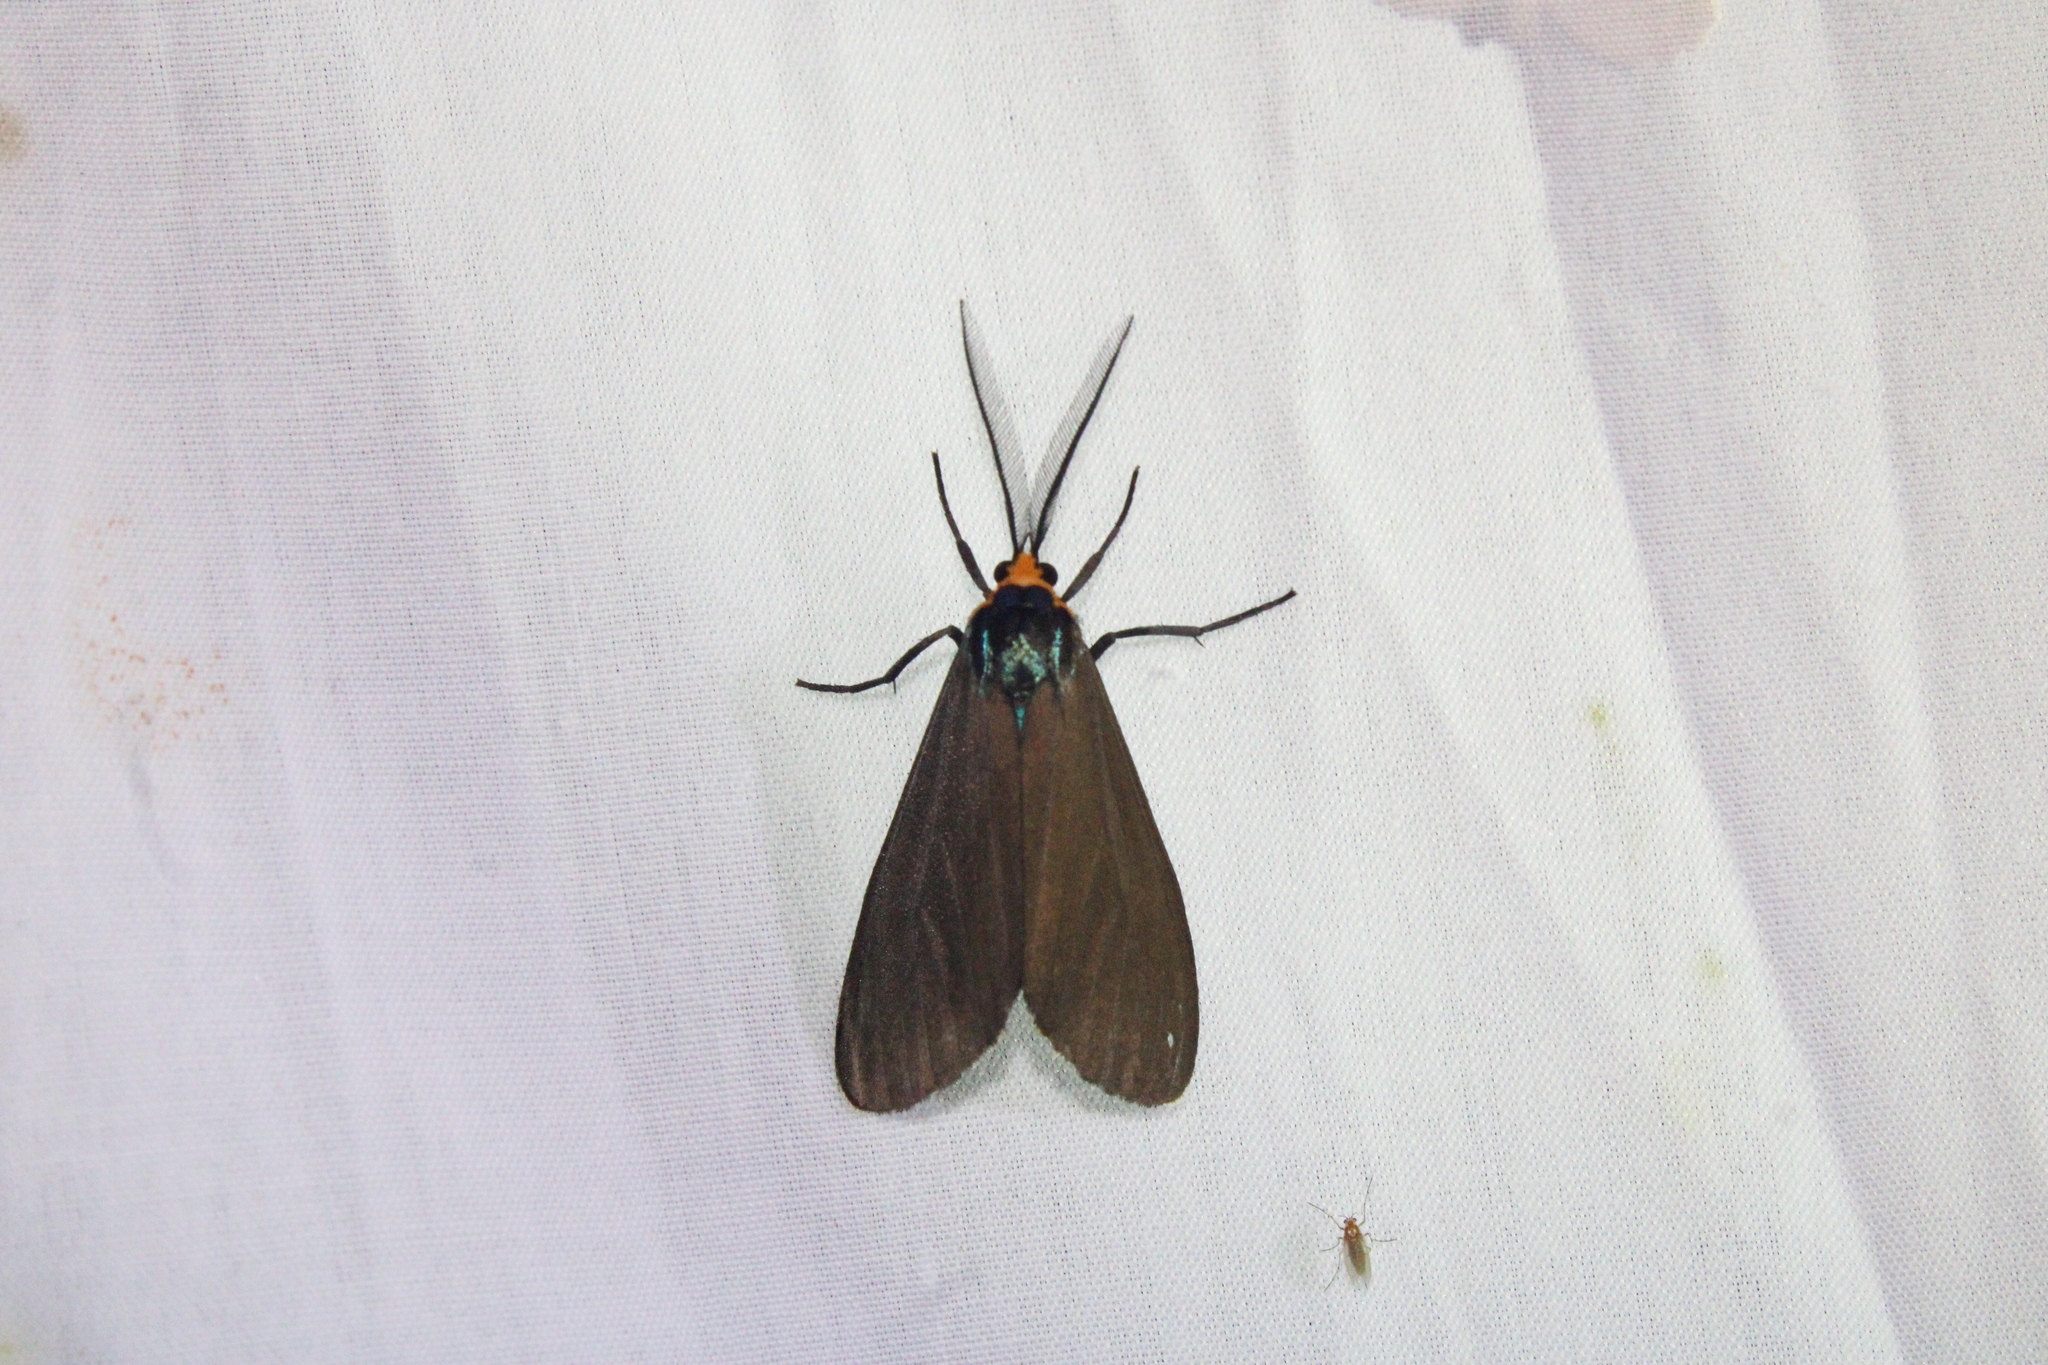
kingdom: Animalia
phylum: Arthropoda
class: Insecta
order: Lepidoptera
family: Erebidae
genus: Ctenucha
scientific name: Ctenucha virginica
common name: Virginia ctenucha moth
